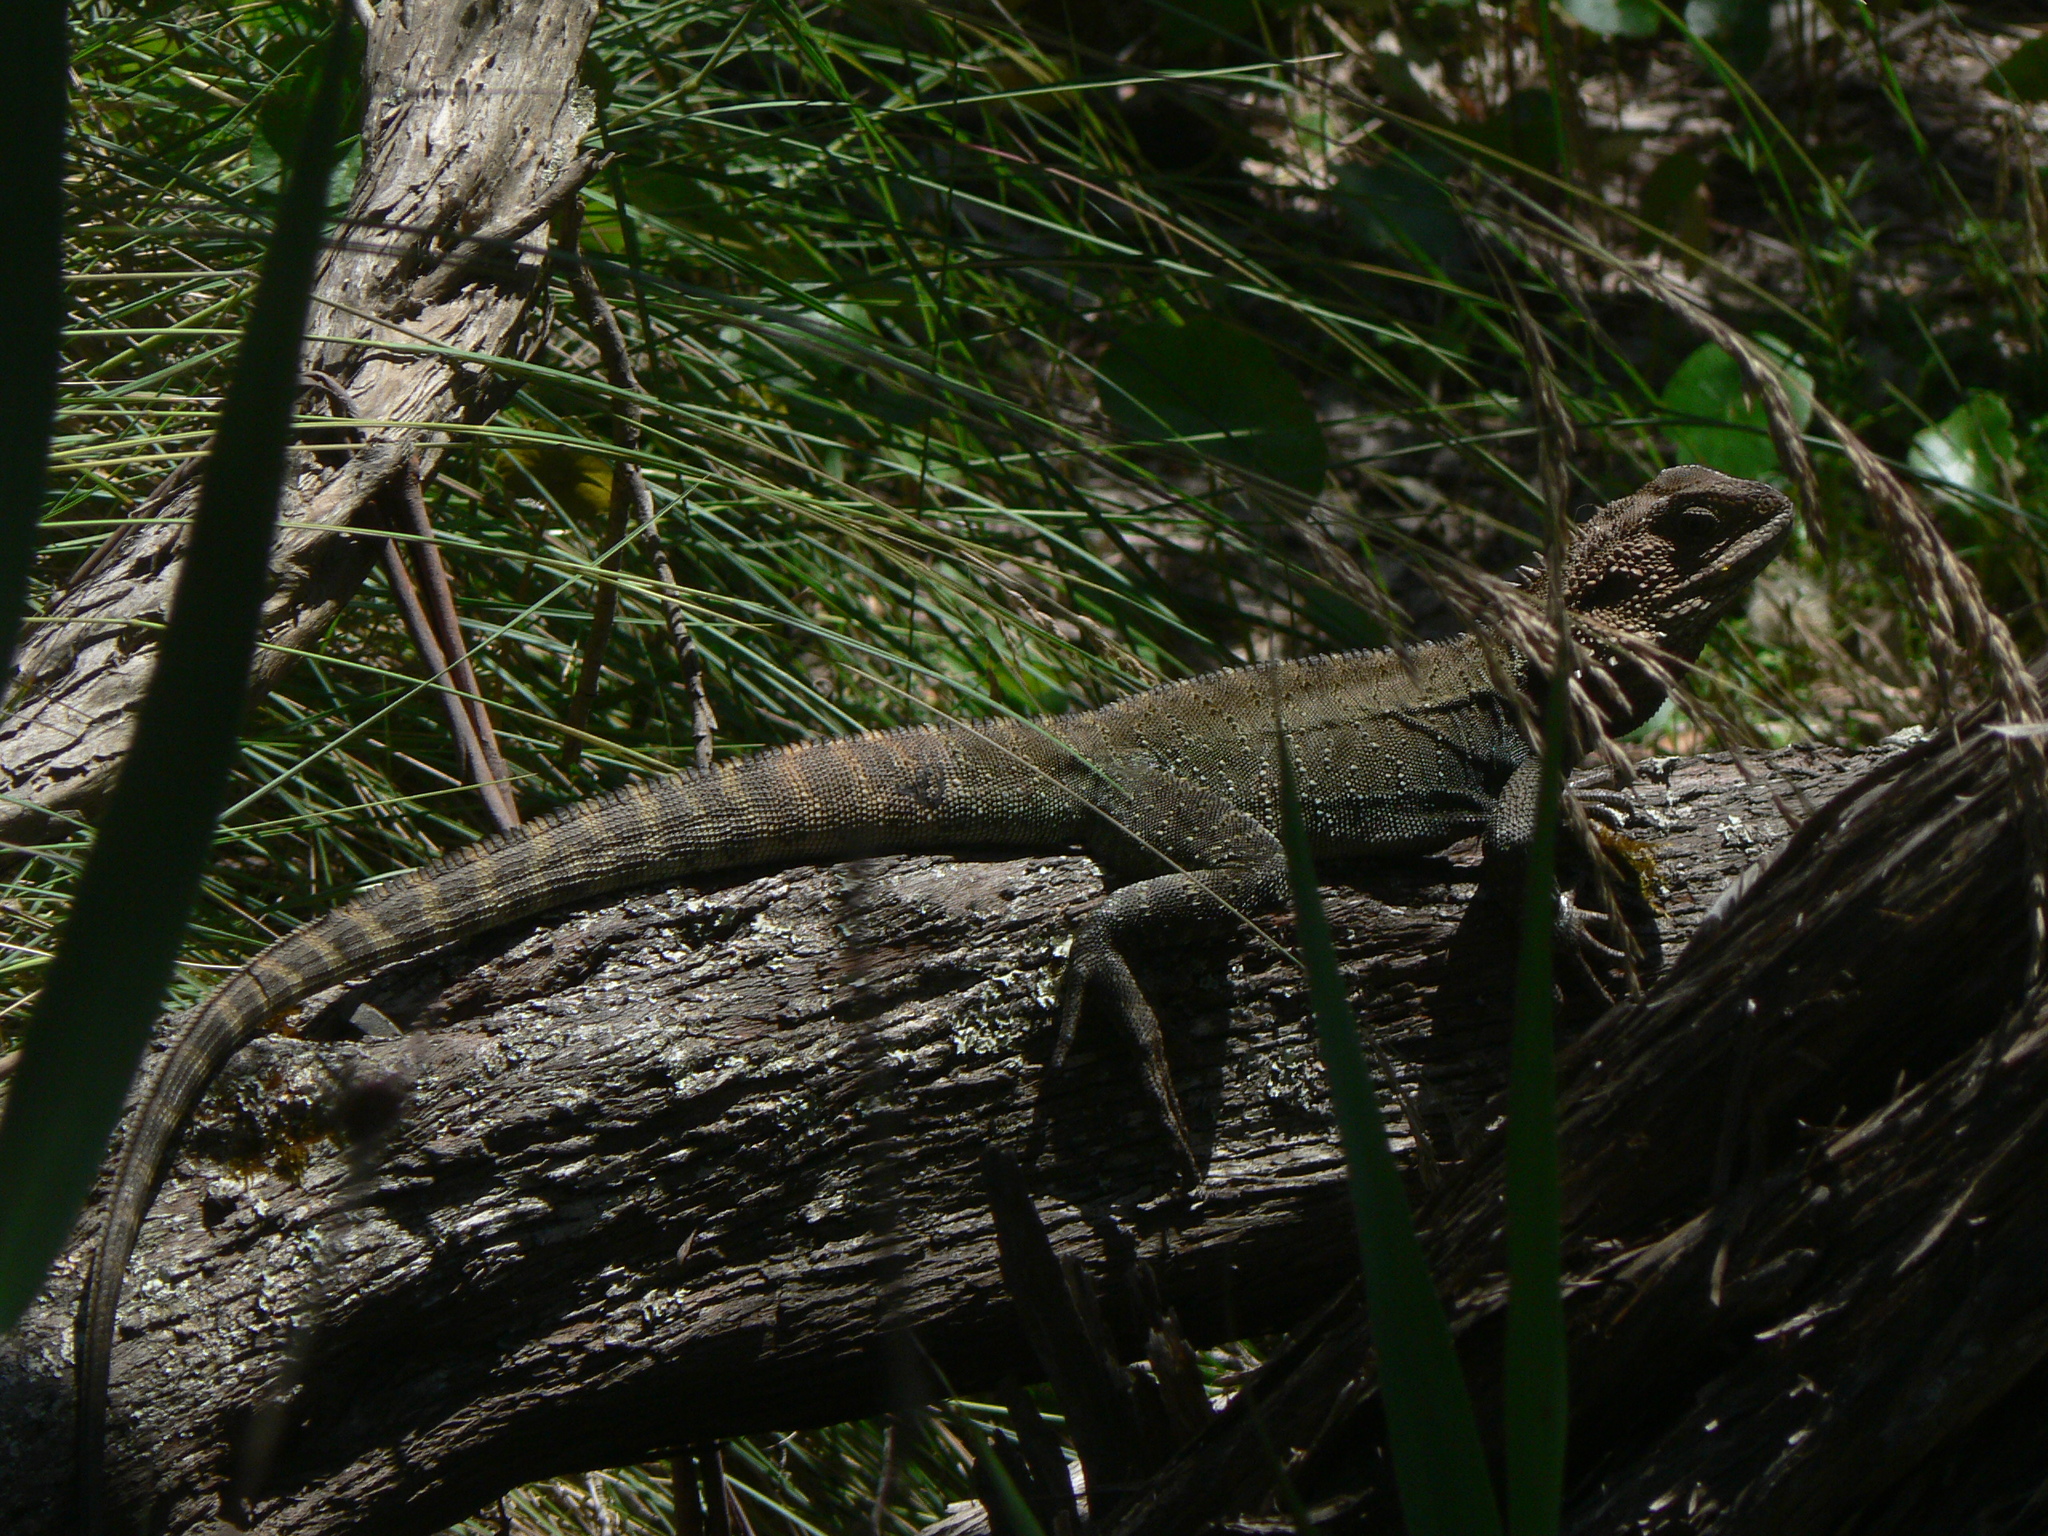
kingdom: Animalia
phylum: Chordata
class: Squamata
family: Agamidae
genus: Intellagama
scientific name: Intellagama lesueurii
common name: Eastern water dragon
